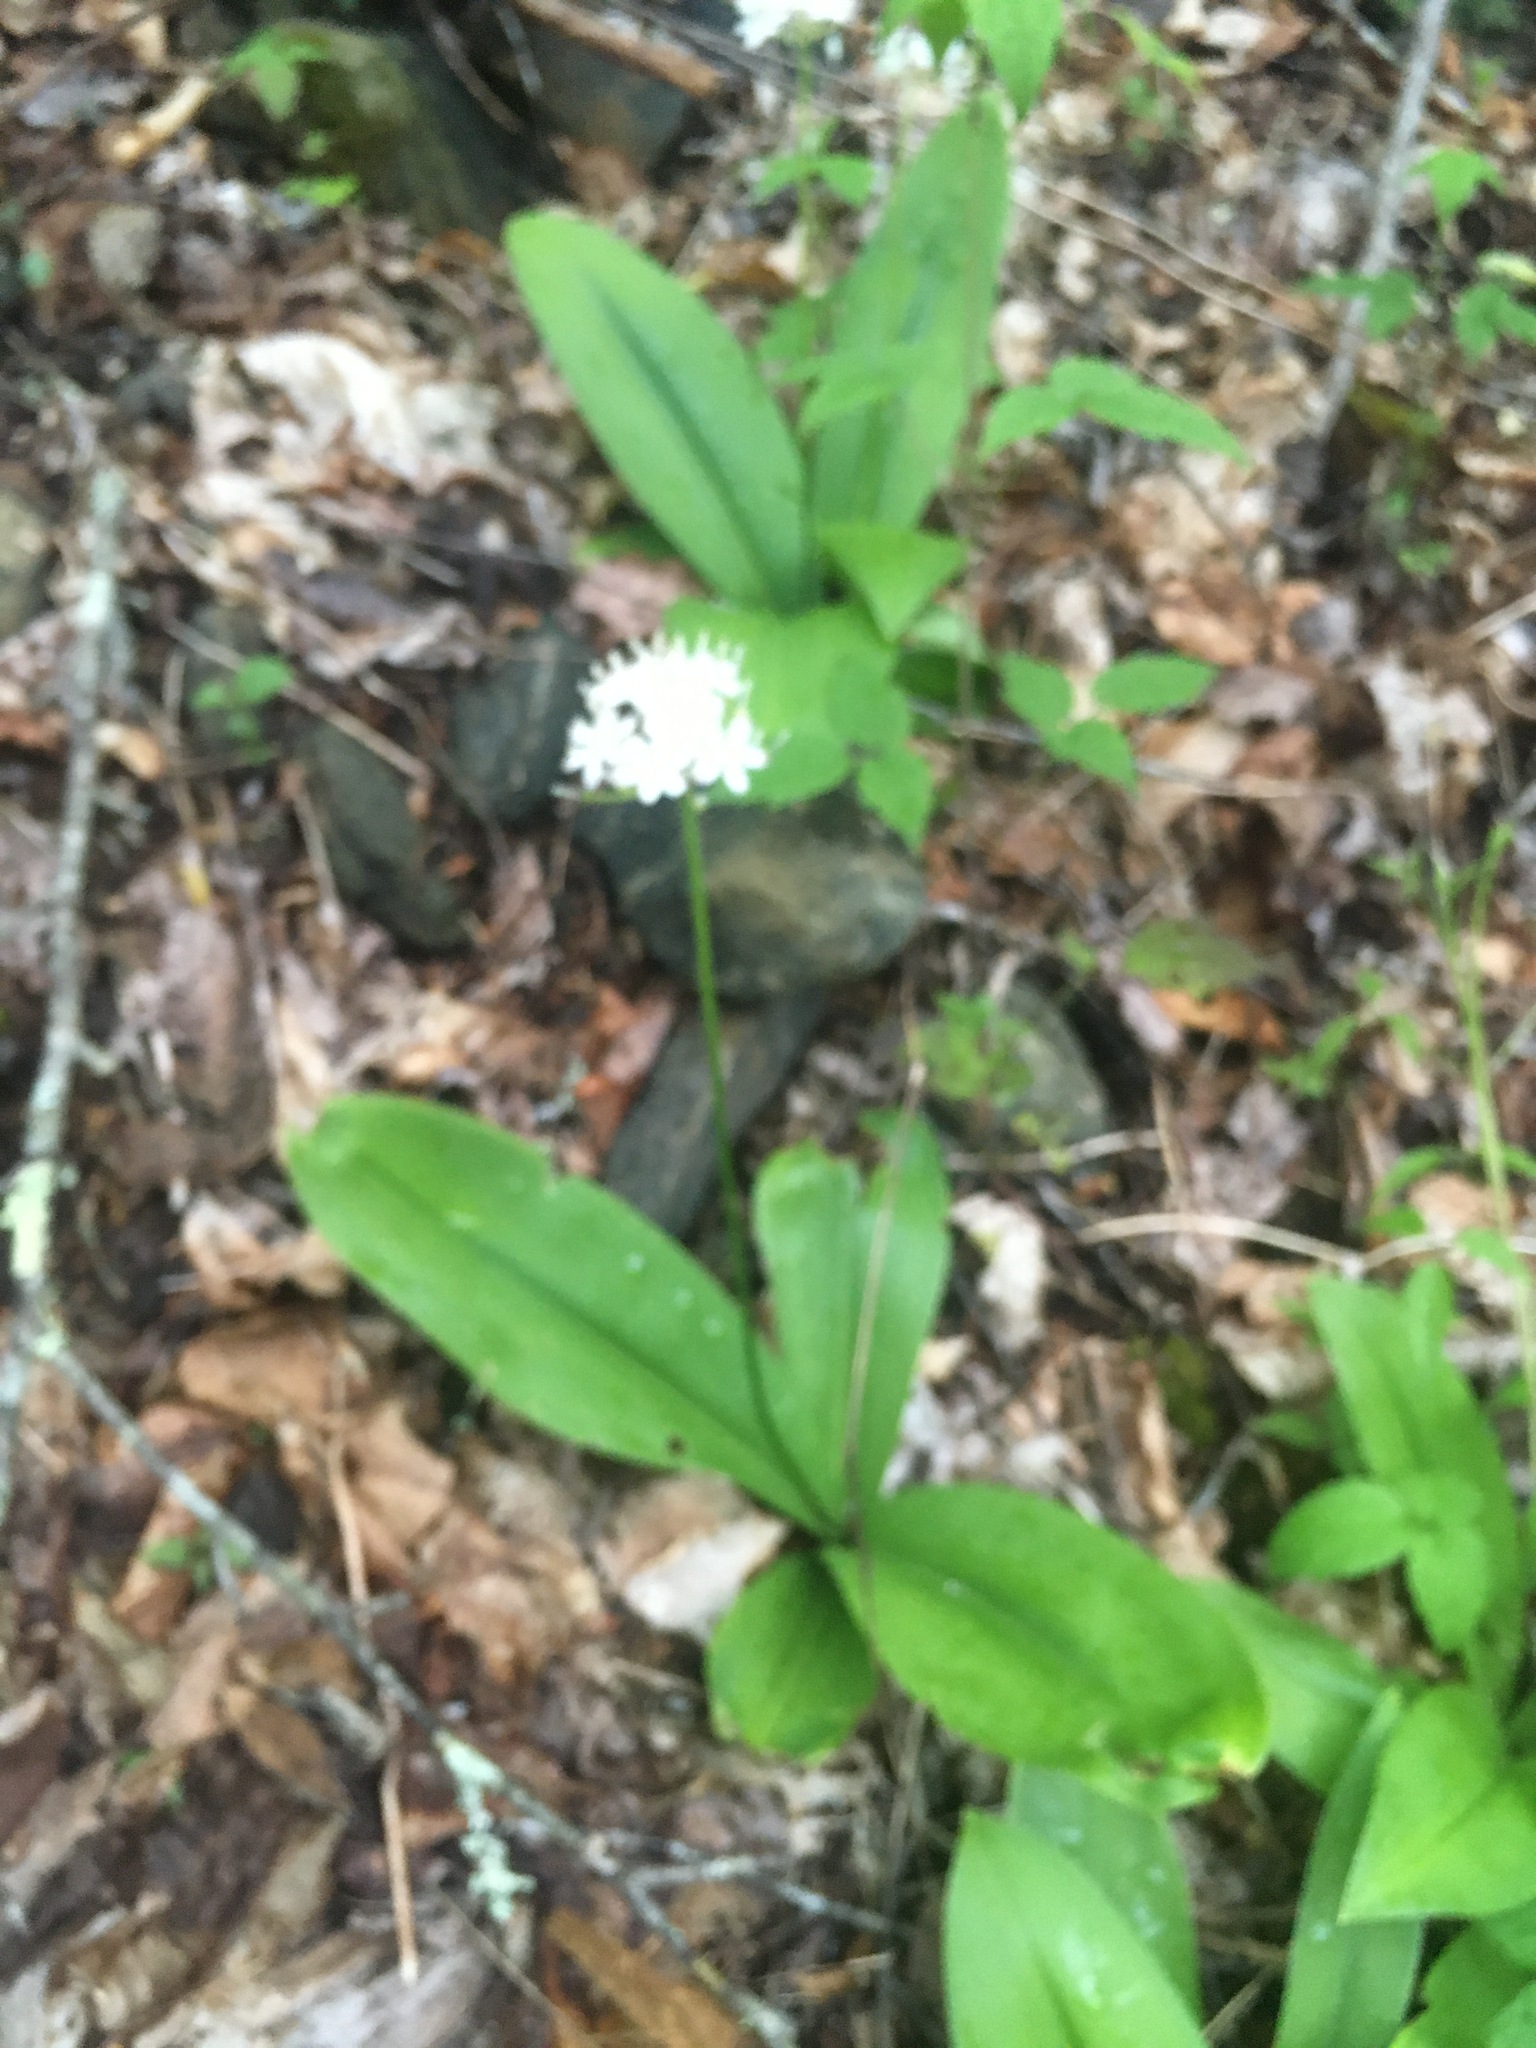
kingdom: Plantae
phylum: Tracheophyta
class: Liliopsida
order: Liliales
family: Liliaceae
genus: Clintonia
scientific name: Clintonia umbellulata
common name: Speckle wood-lily
